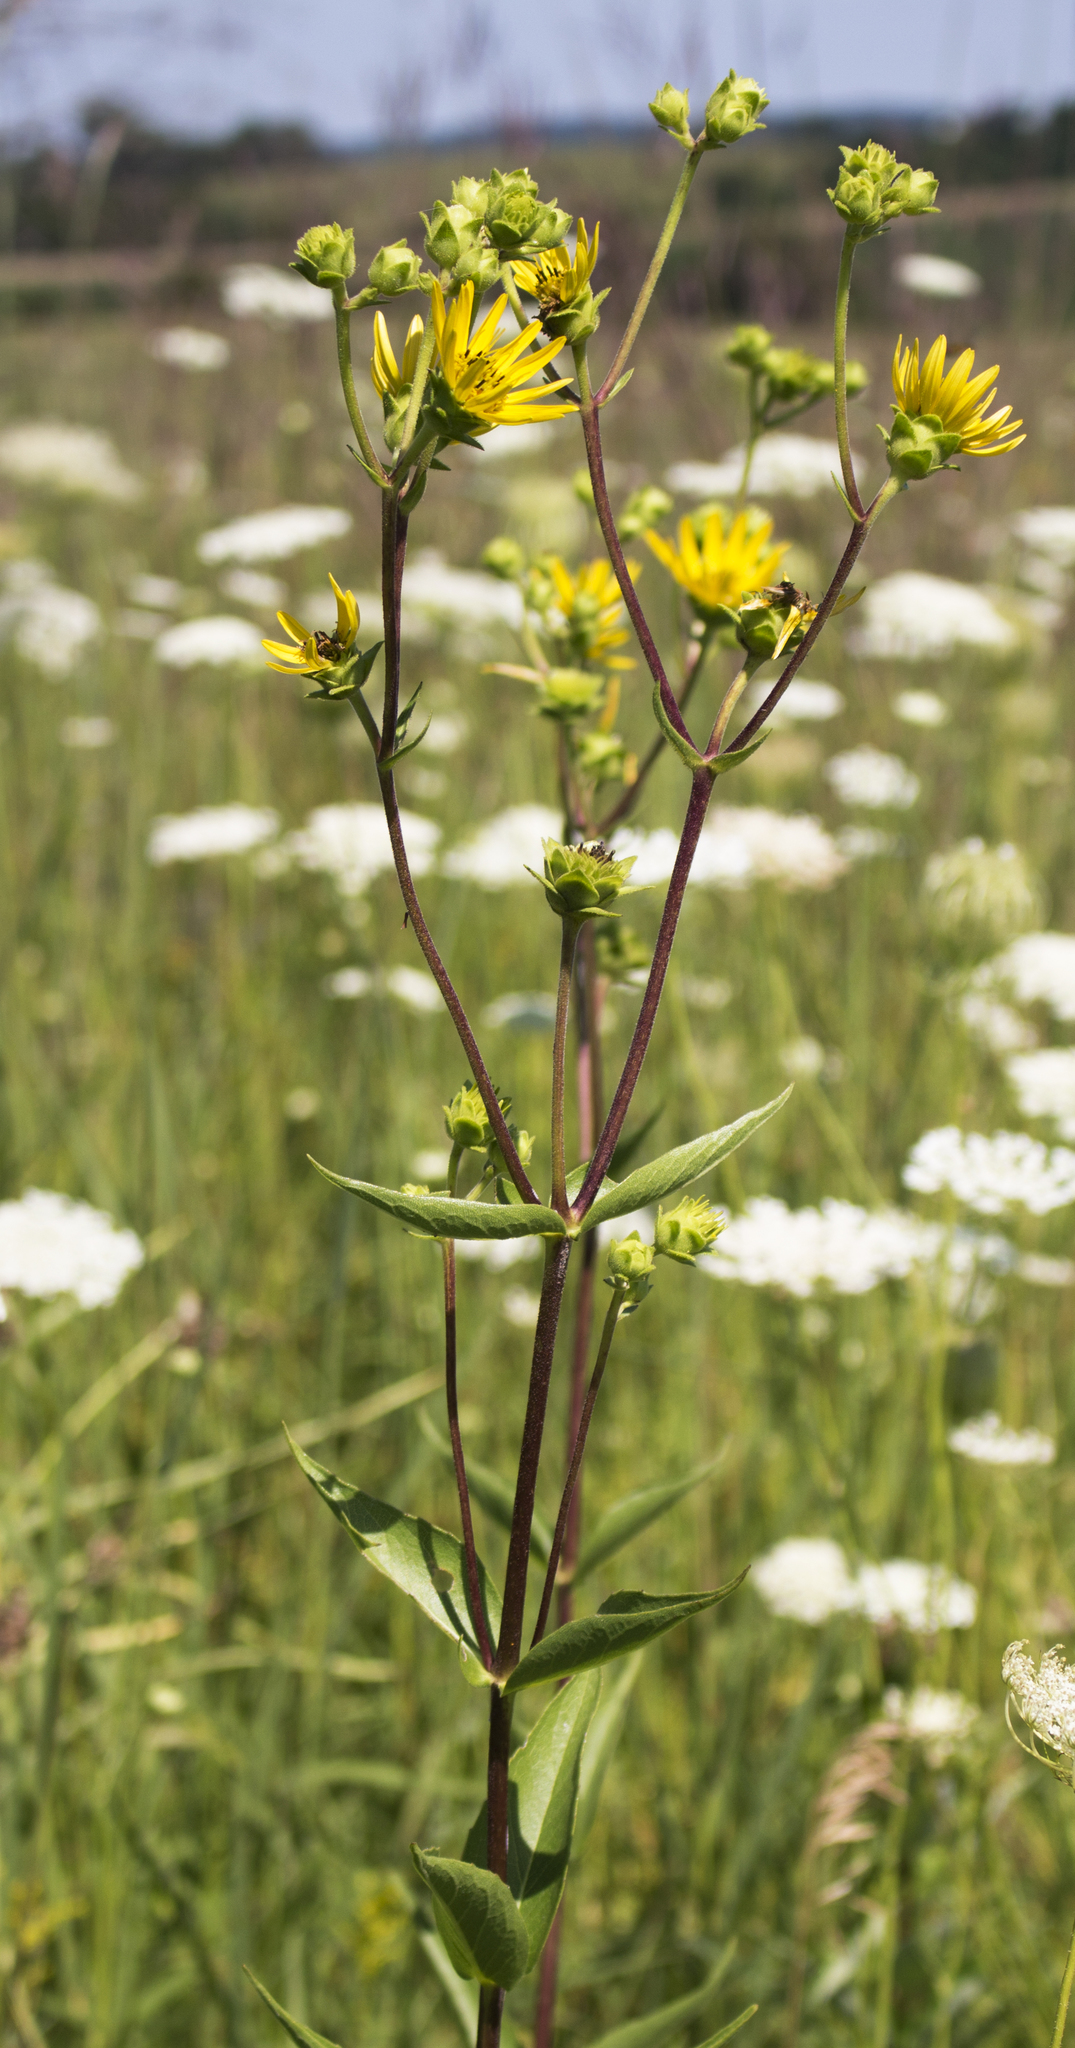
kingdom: Plantae
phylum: Tracheophyta
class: Magnoliopsida
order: Asterales
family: Asteraceae
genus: Silphium
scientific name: Silphium integrifolium
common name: Whole-leaf rosinweed
